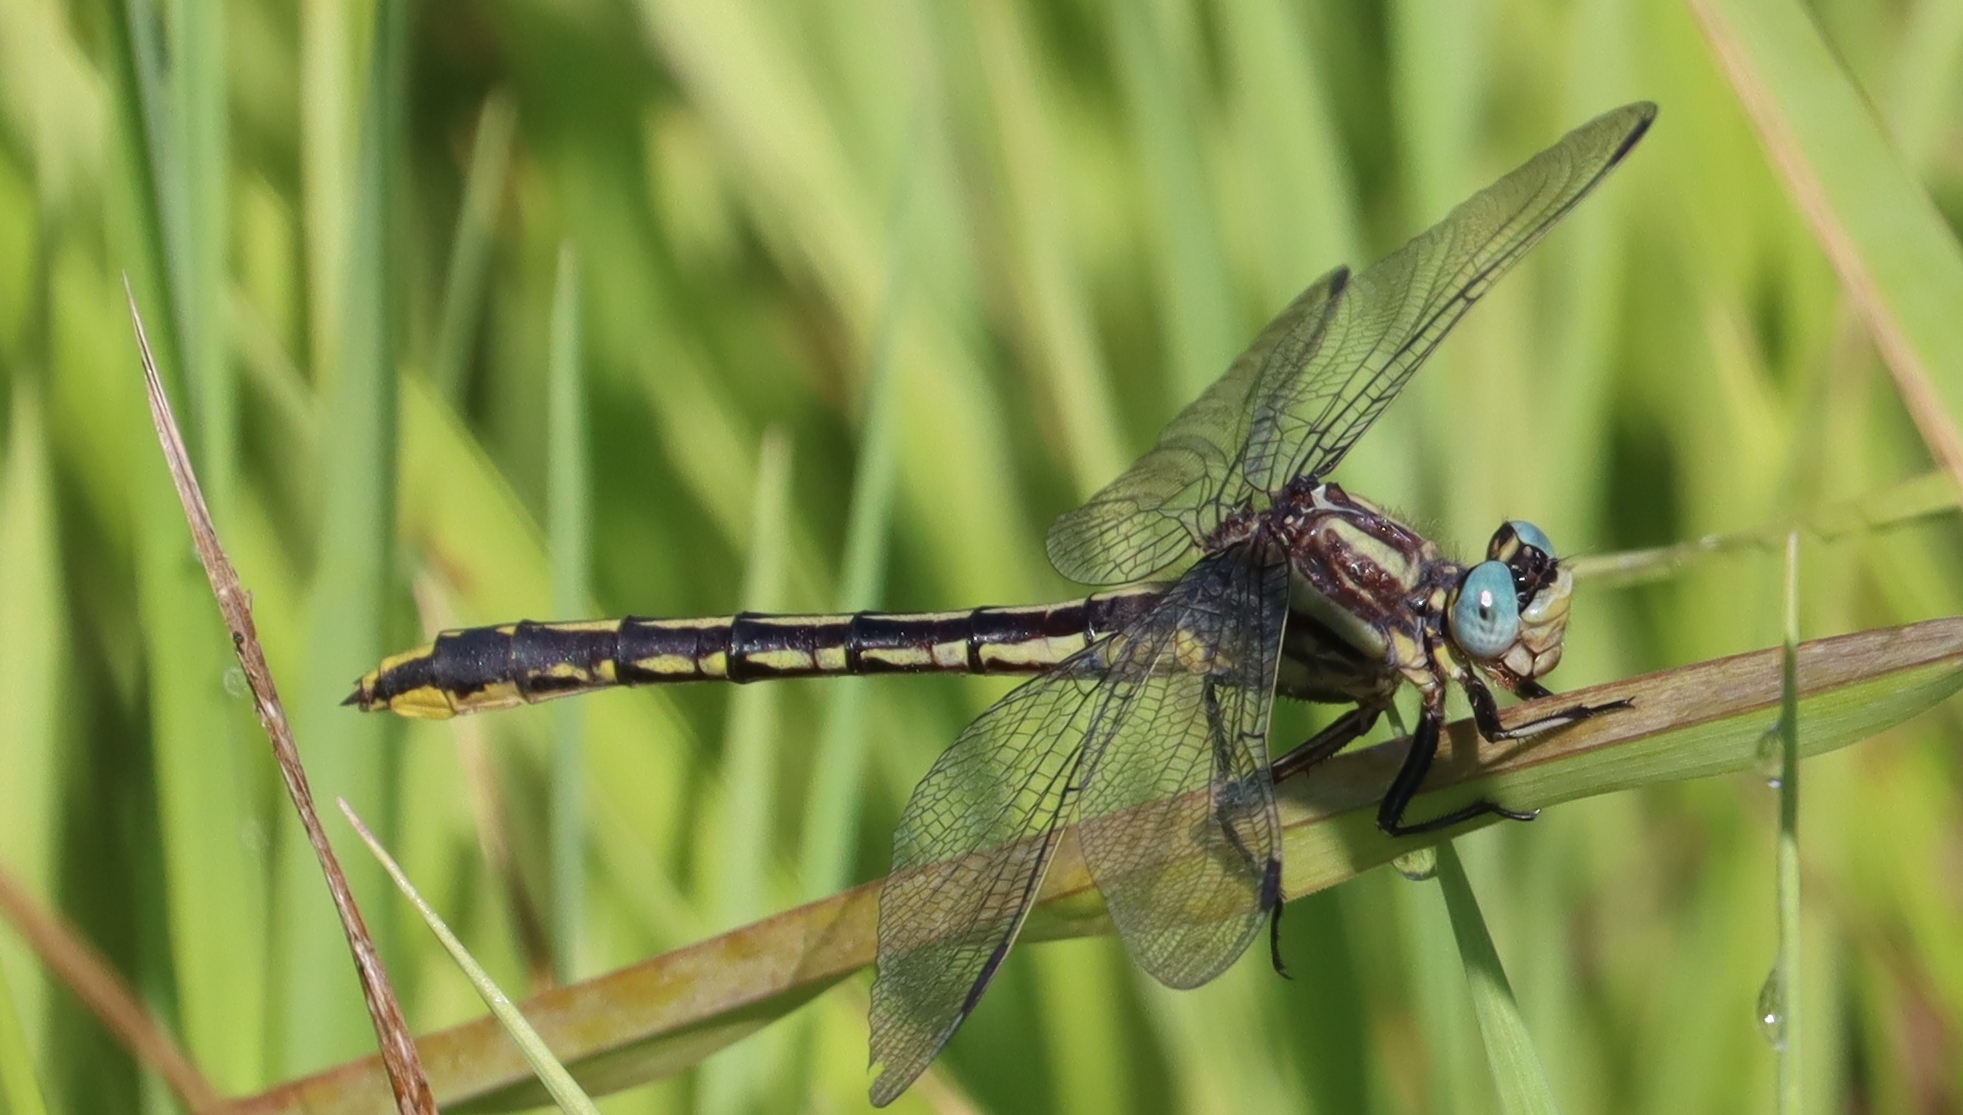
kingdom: Animalia
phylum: Arthropoda
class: Insecta
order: Odonata
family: Gomphidae
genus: Phanogomphus
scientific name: Phanogomphus graslinellus
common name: Pronghorn clubtail
